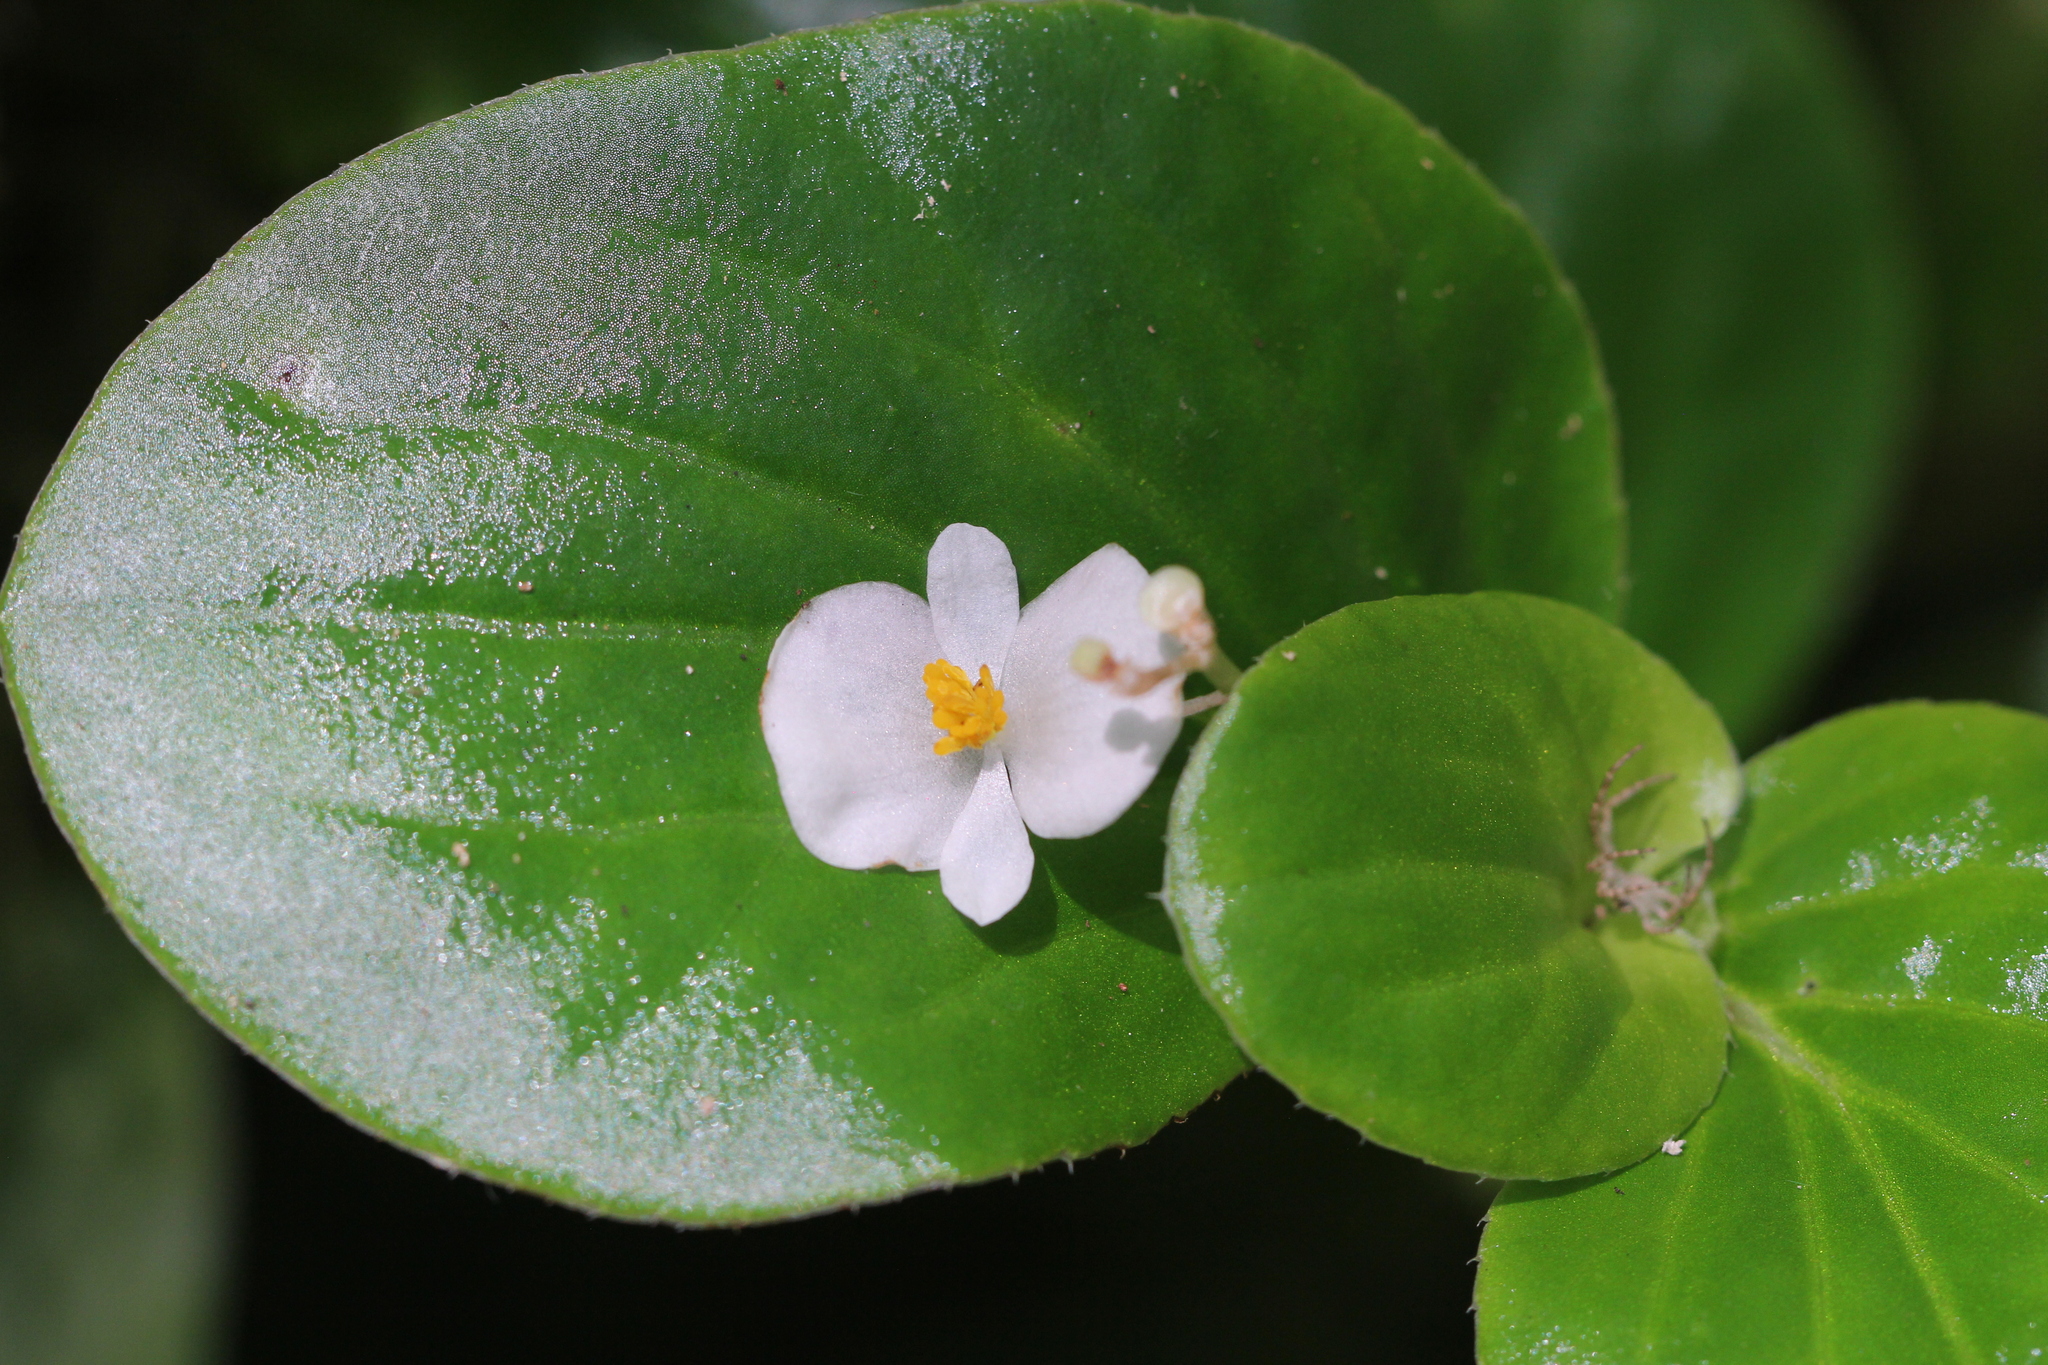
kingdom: Plantae
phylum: Tracheophyta
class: Magnoliopsida
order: Cucurbitales
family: Begoniaceae
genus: Begonia
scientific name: Begonia cucullata
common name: Clubbed begonia
